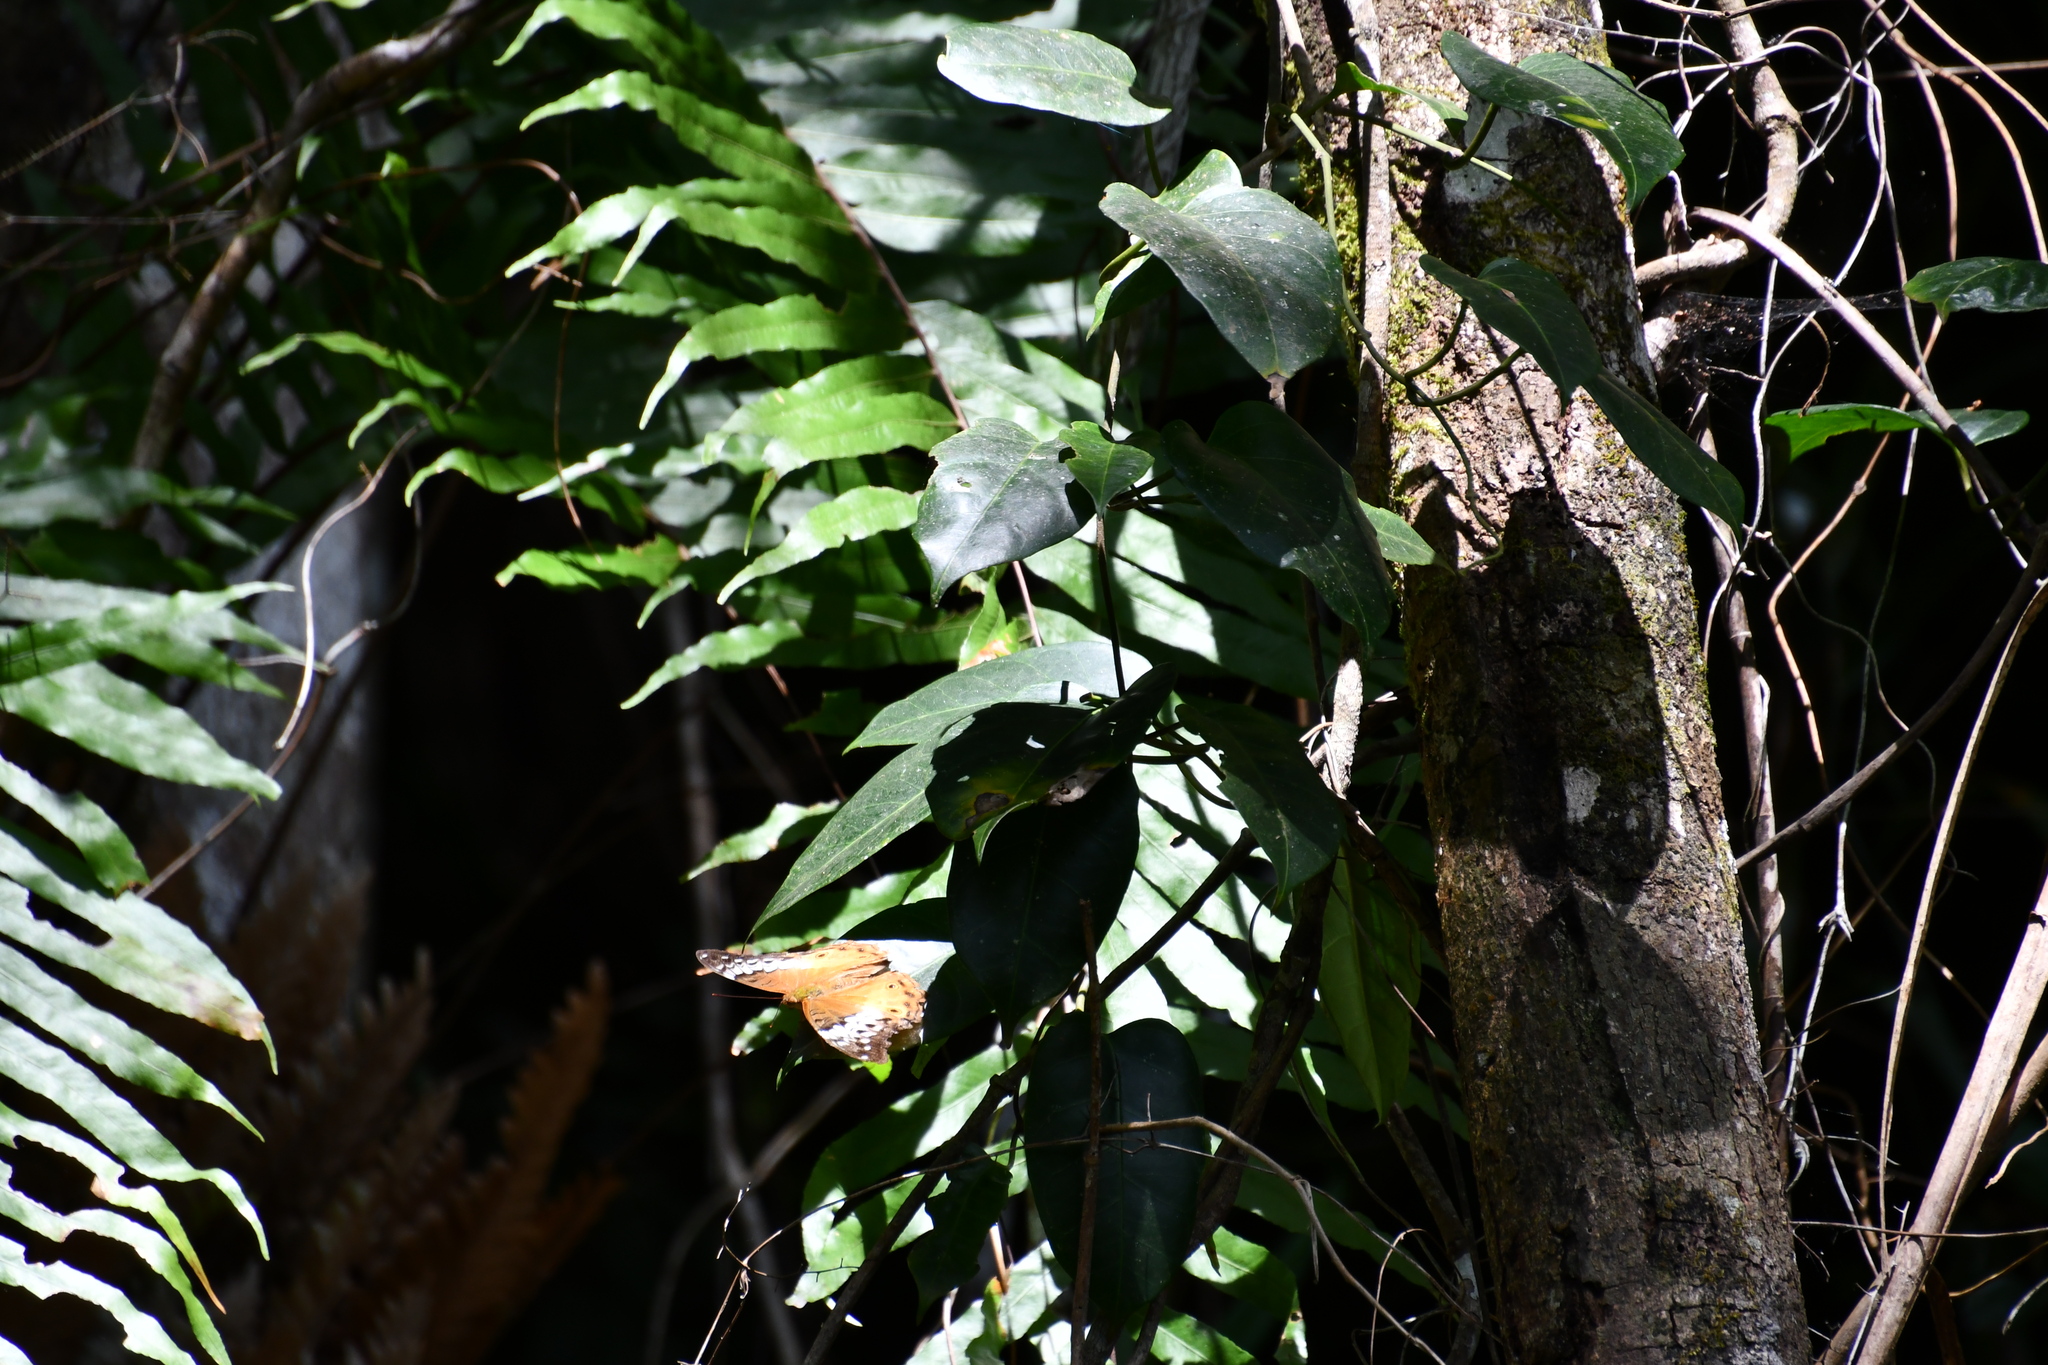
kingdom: Animalia
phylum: Arthropoda
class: Insecta
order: Lepidoptera
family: Nymphalidae
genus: Vindula
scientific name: Vindula arsinoe
